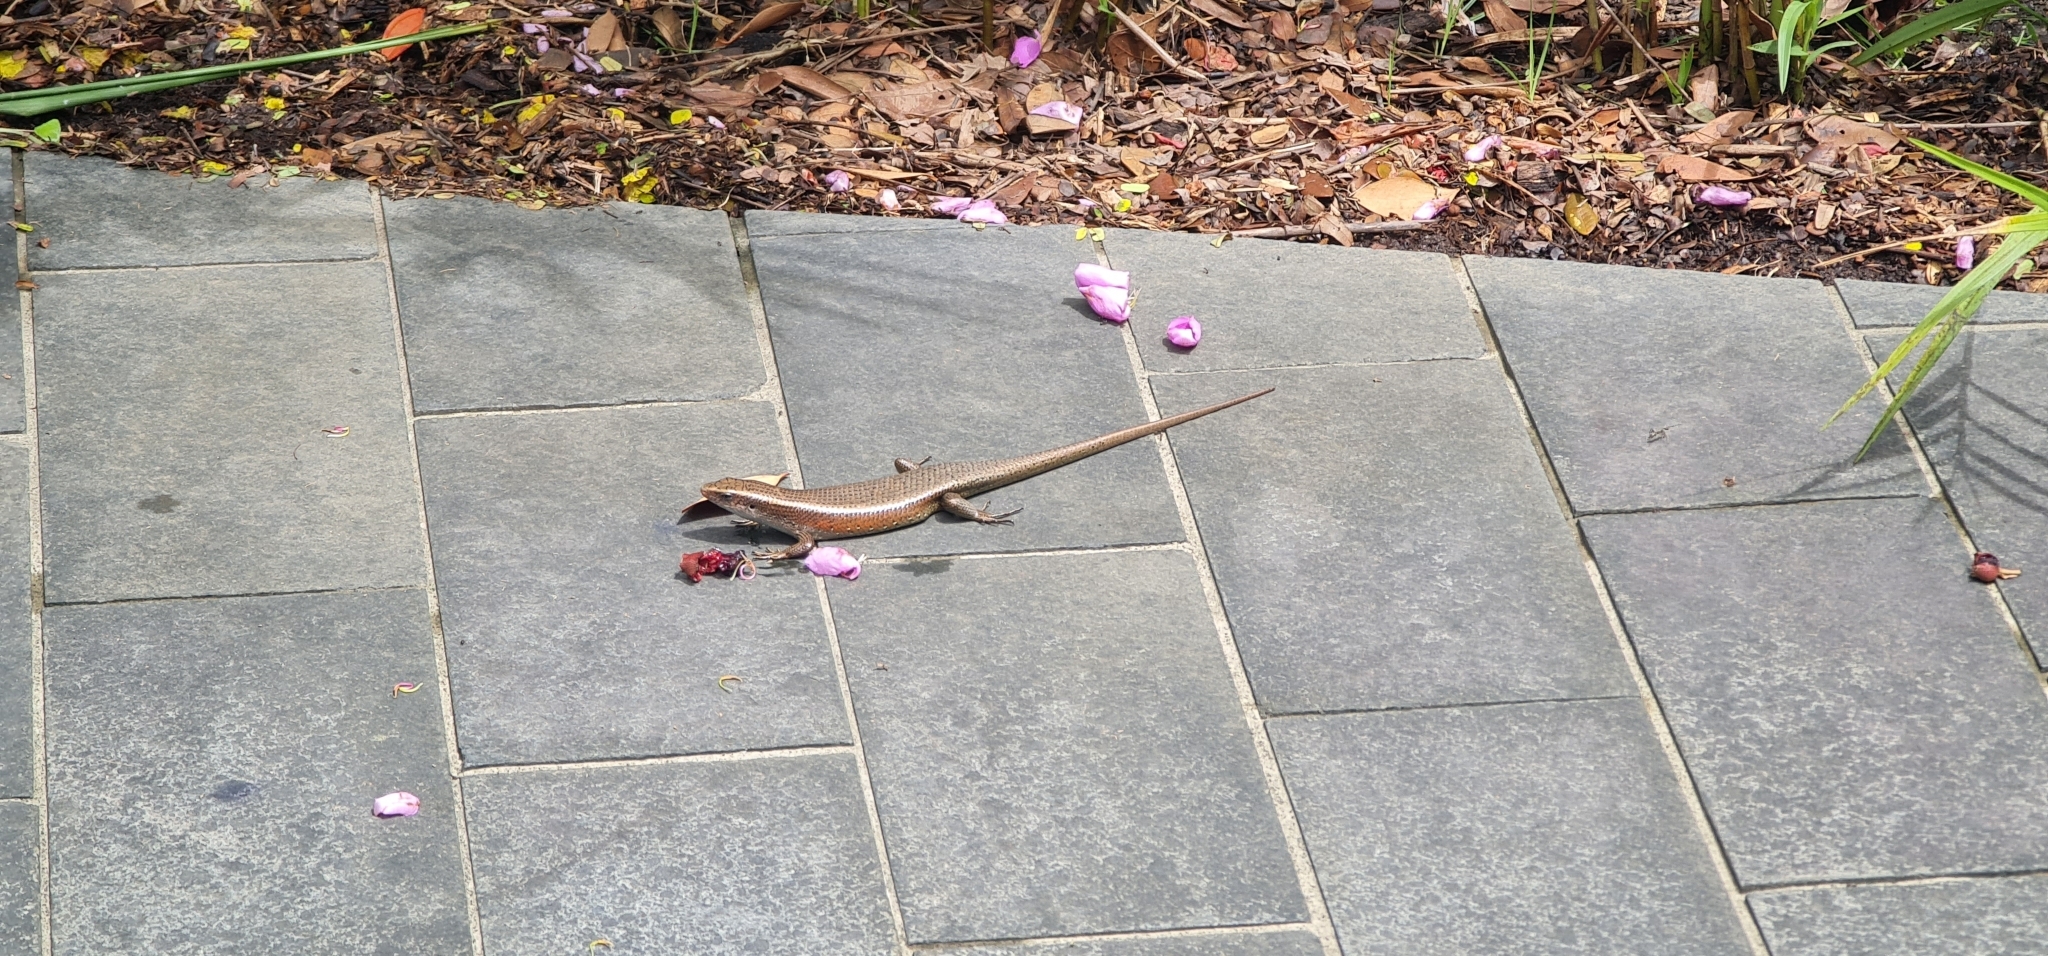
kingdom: Animalia
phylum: Chordata
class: Squamata
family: Scincidae
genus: Eutropis
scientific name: Eutropis multifasciata
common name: Common mabuya
